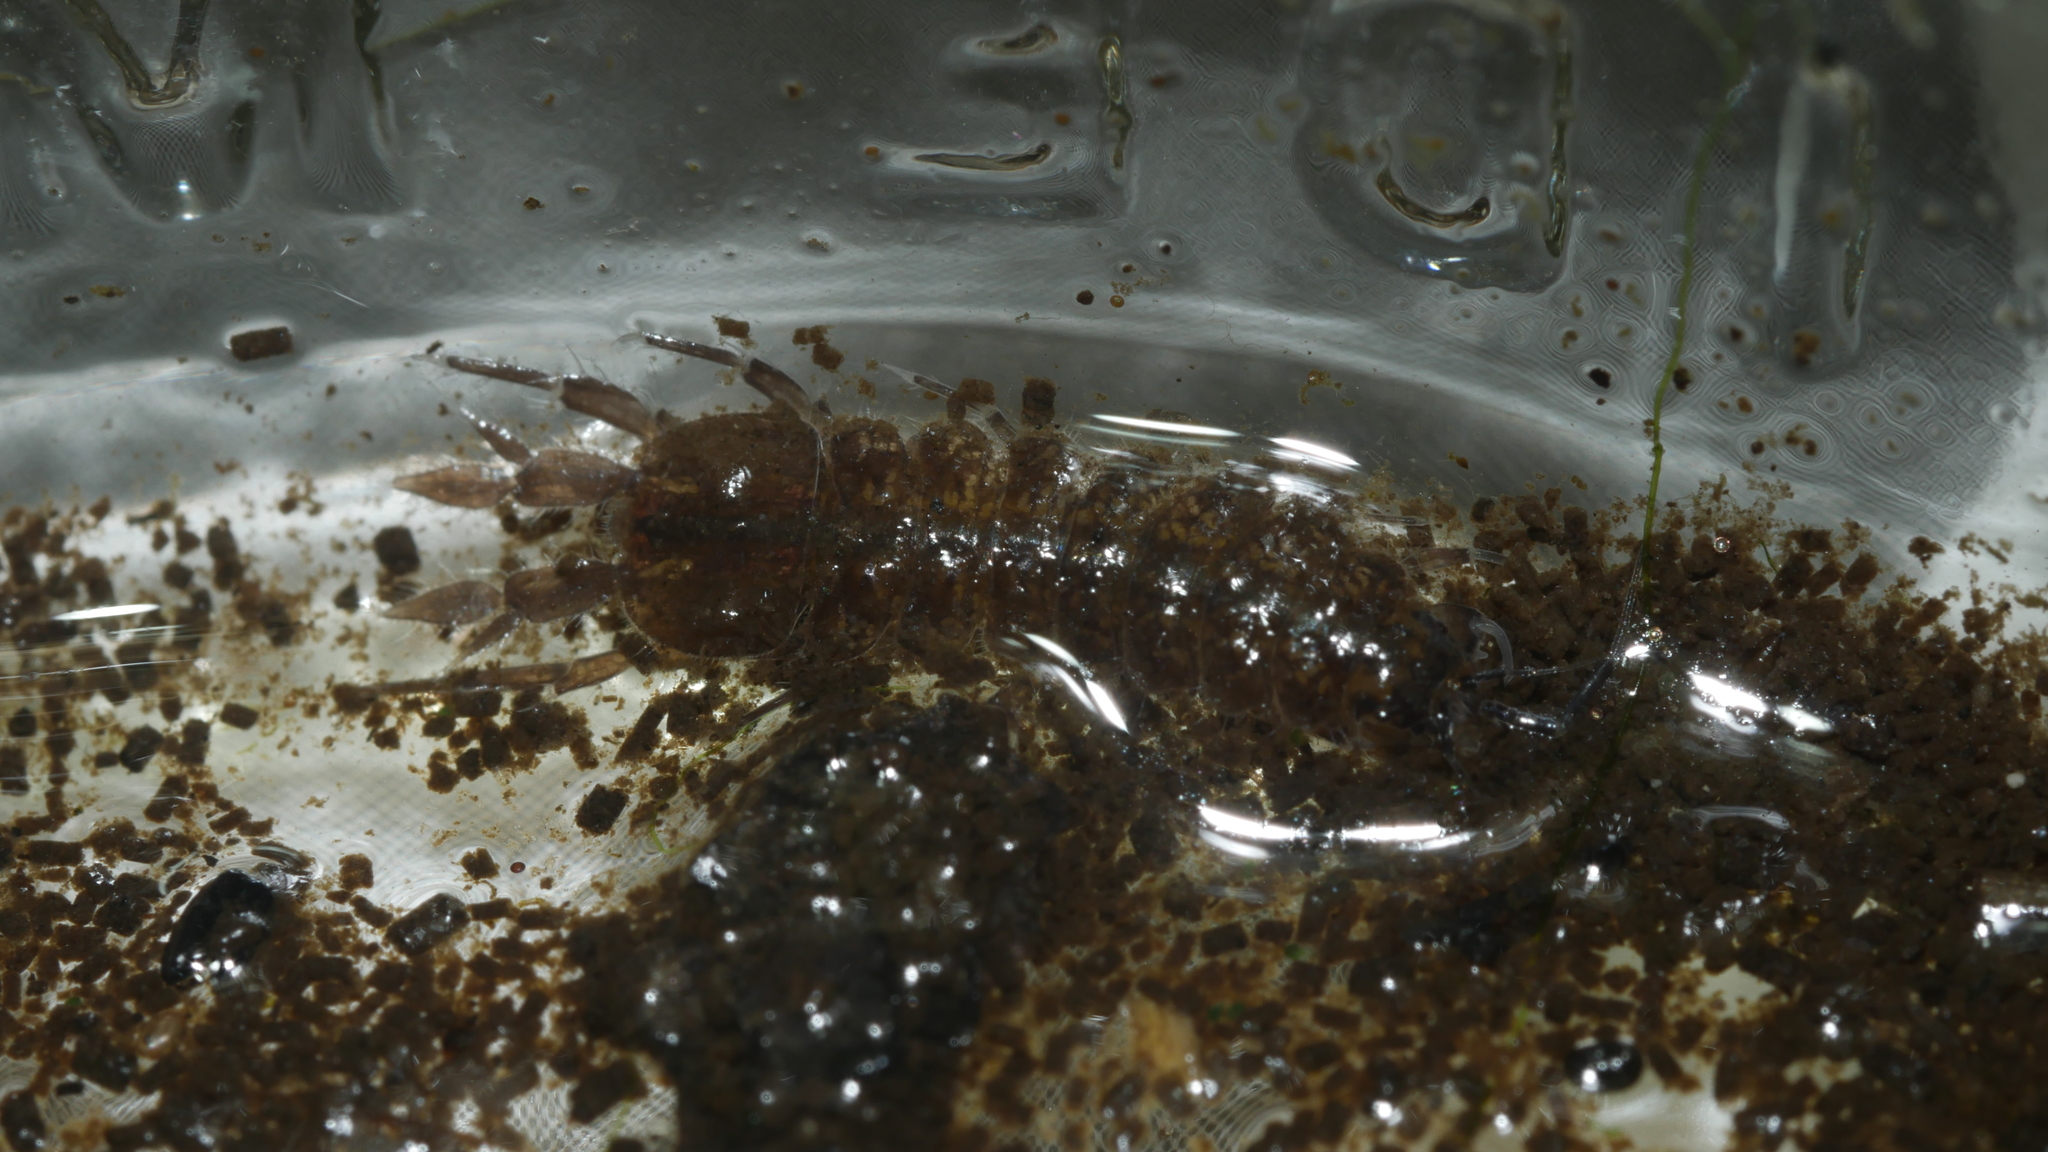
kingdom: Animalia
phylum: Arthropoda
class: Malacostraca
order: Isopoda
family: Asellidae
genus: Caecidotea
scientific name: Caecidotea communis
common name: Eastern waterslater
